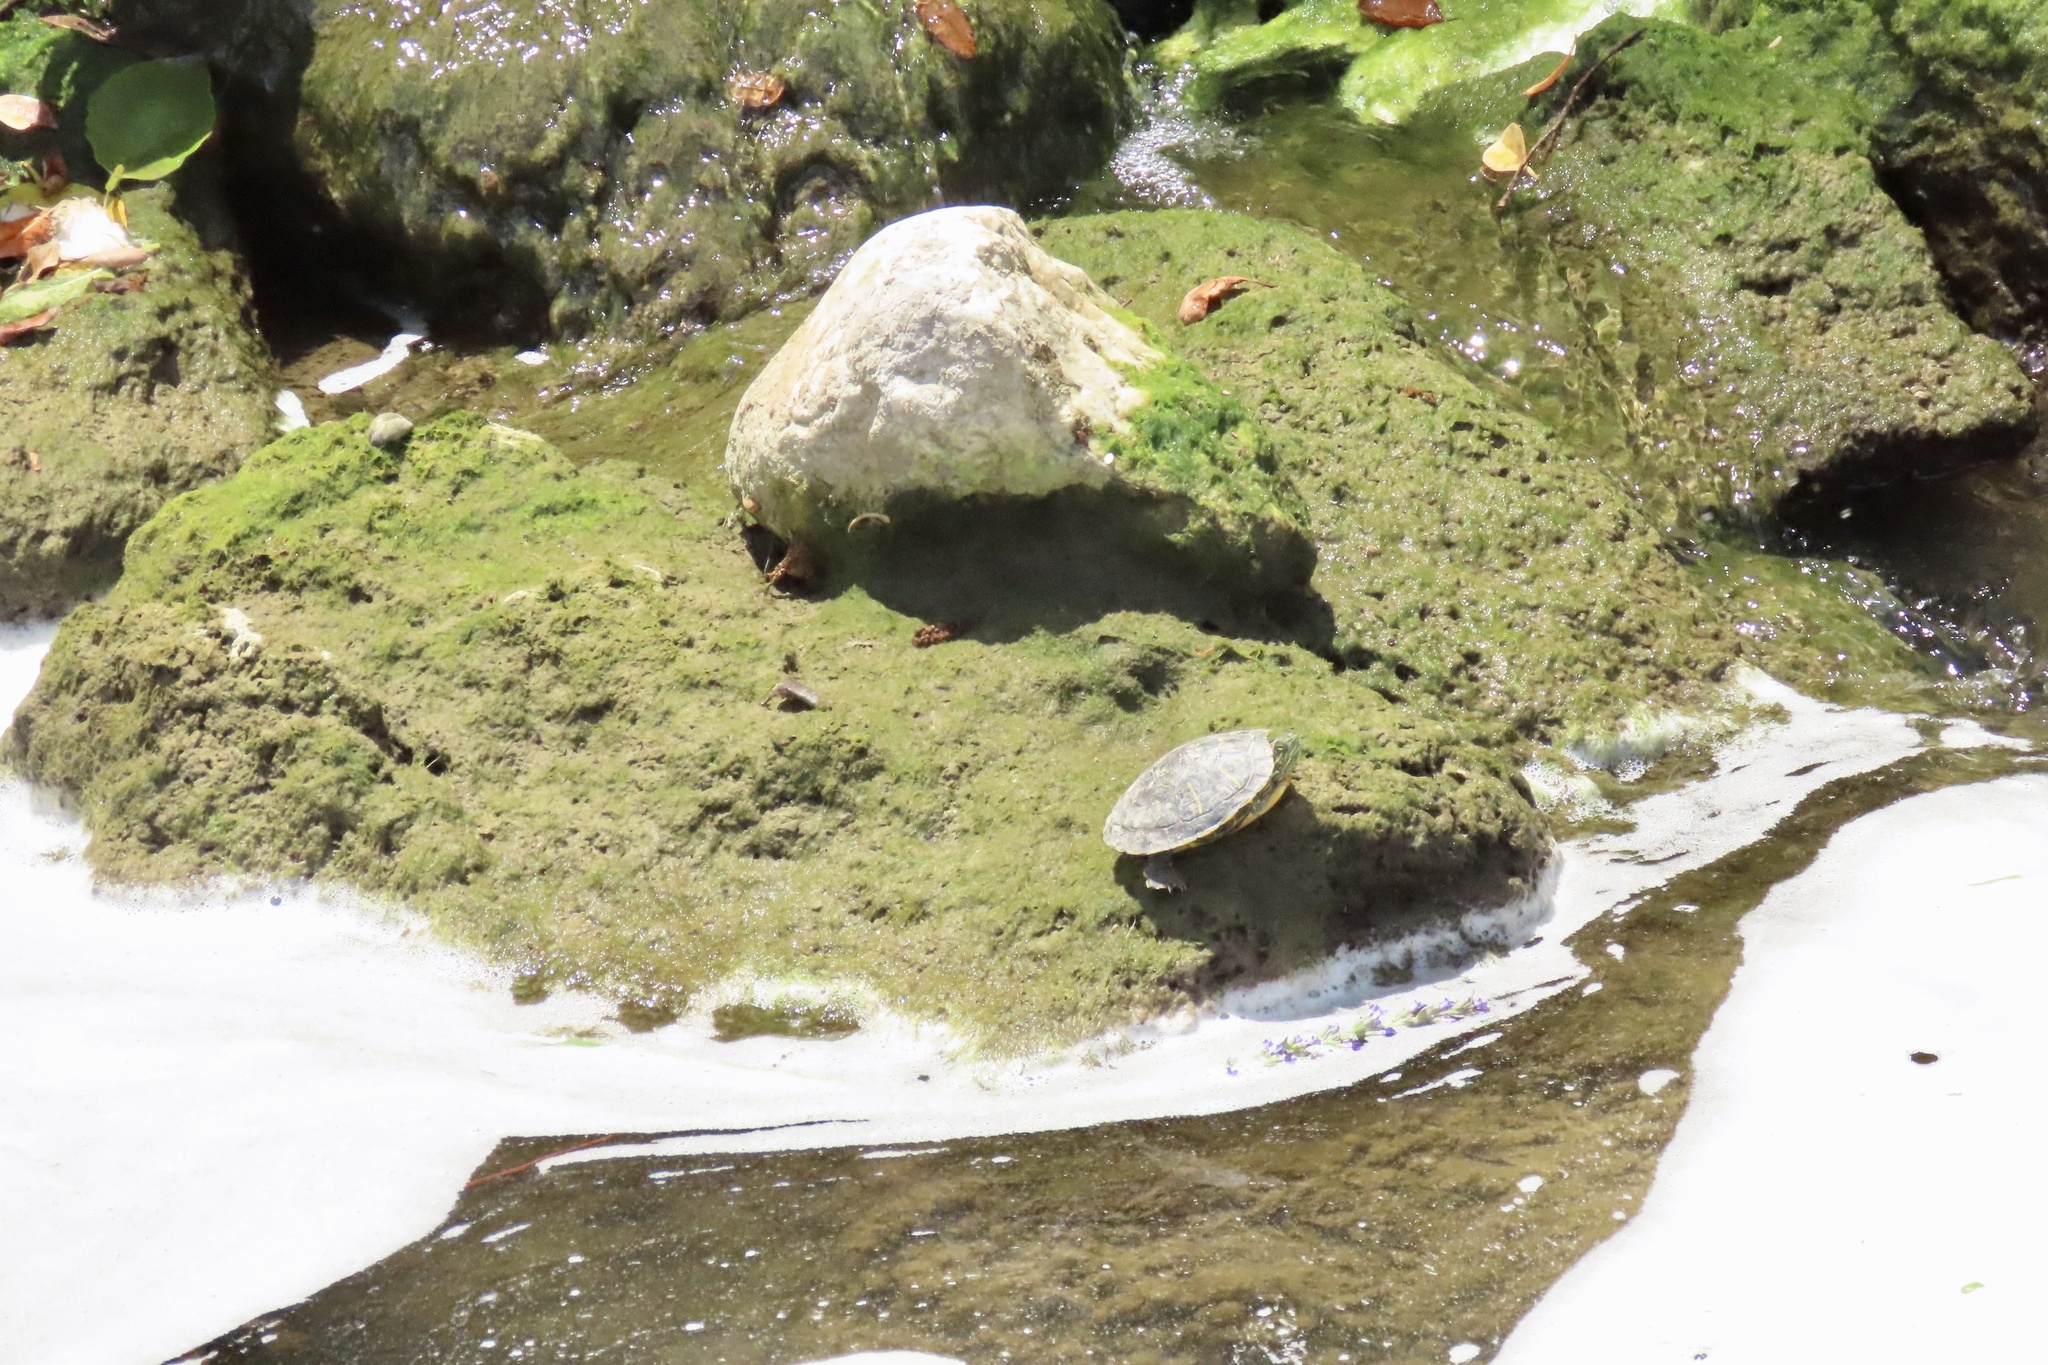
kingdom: Animalia
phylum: Chordata
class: Testudines
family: Emydidae
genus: Trachemys
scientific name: Trachemys scripta
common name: Slider
